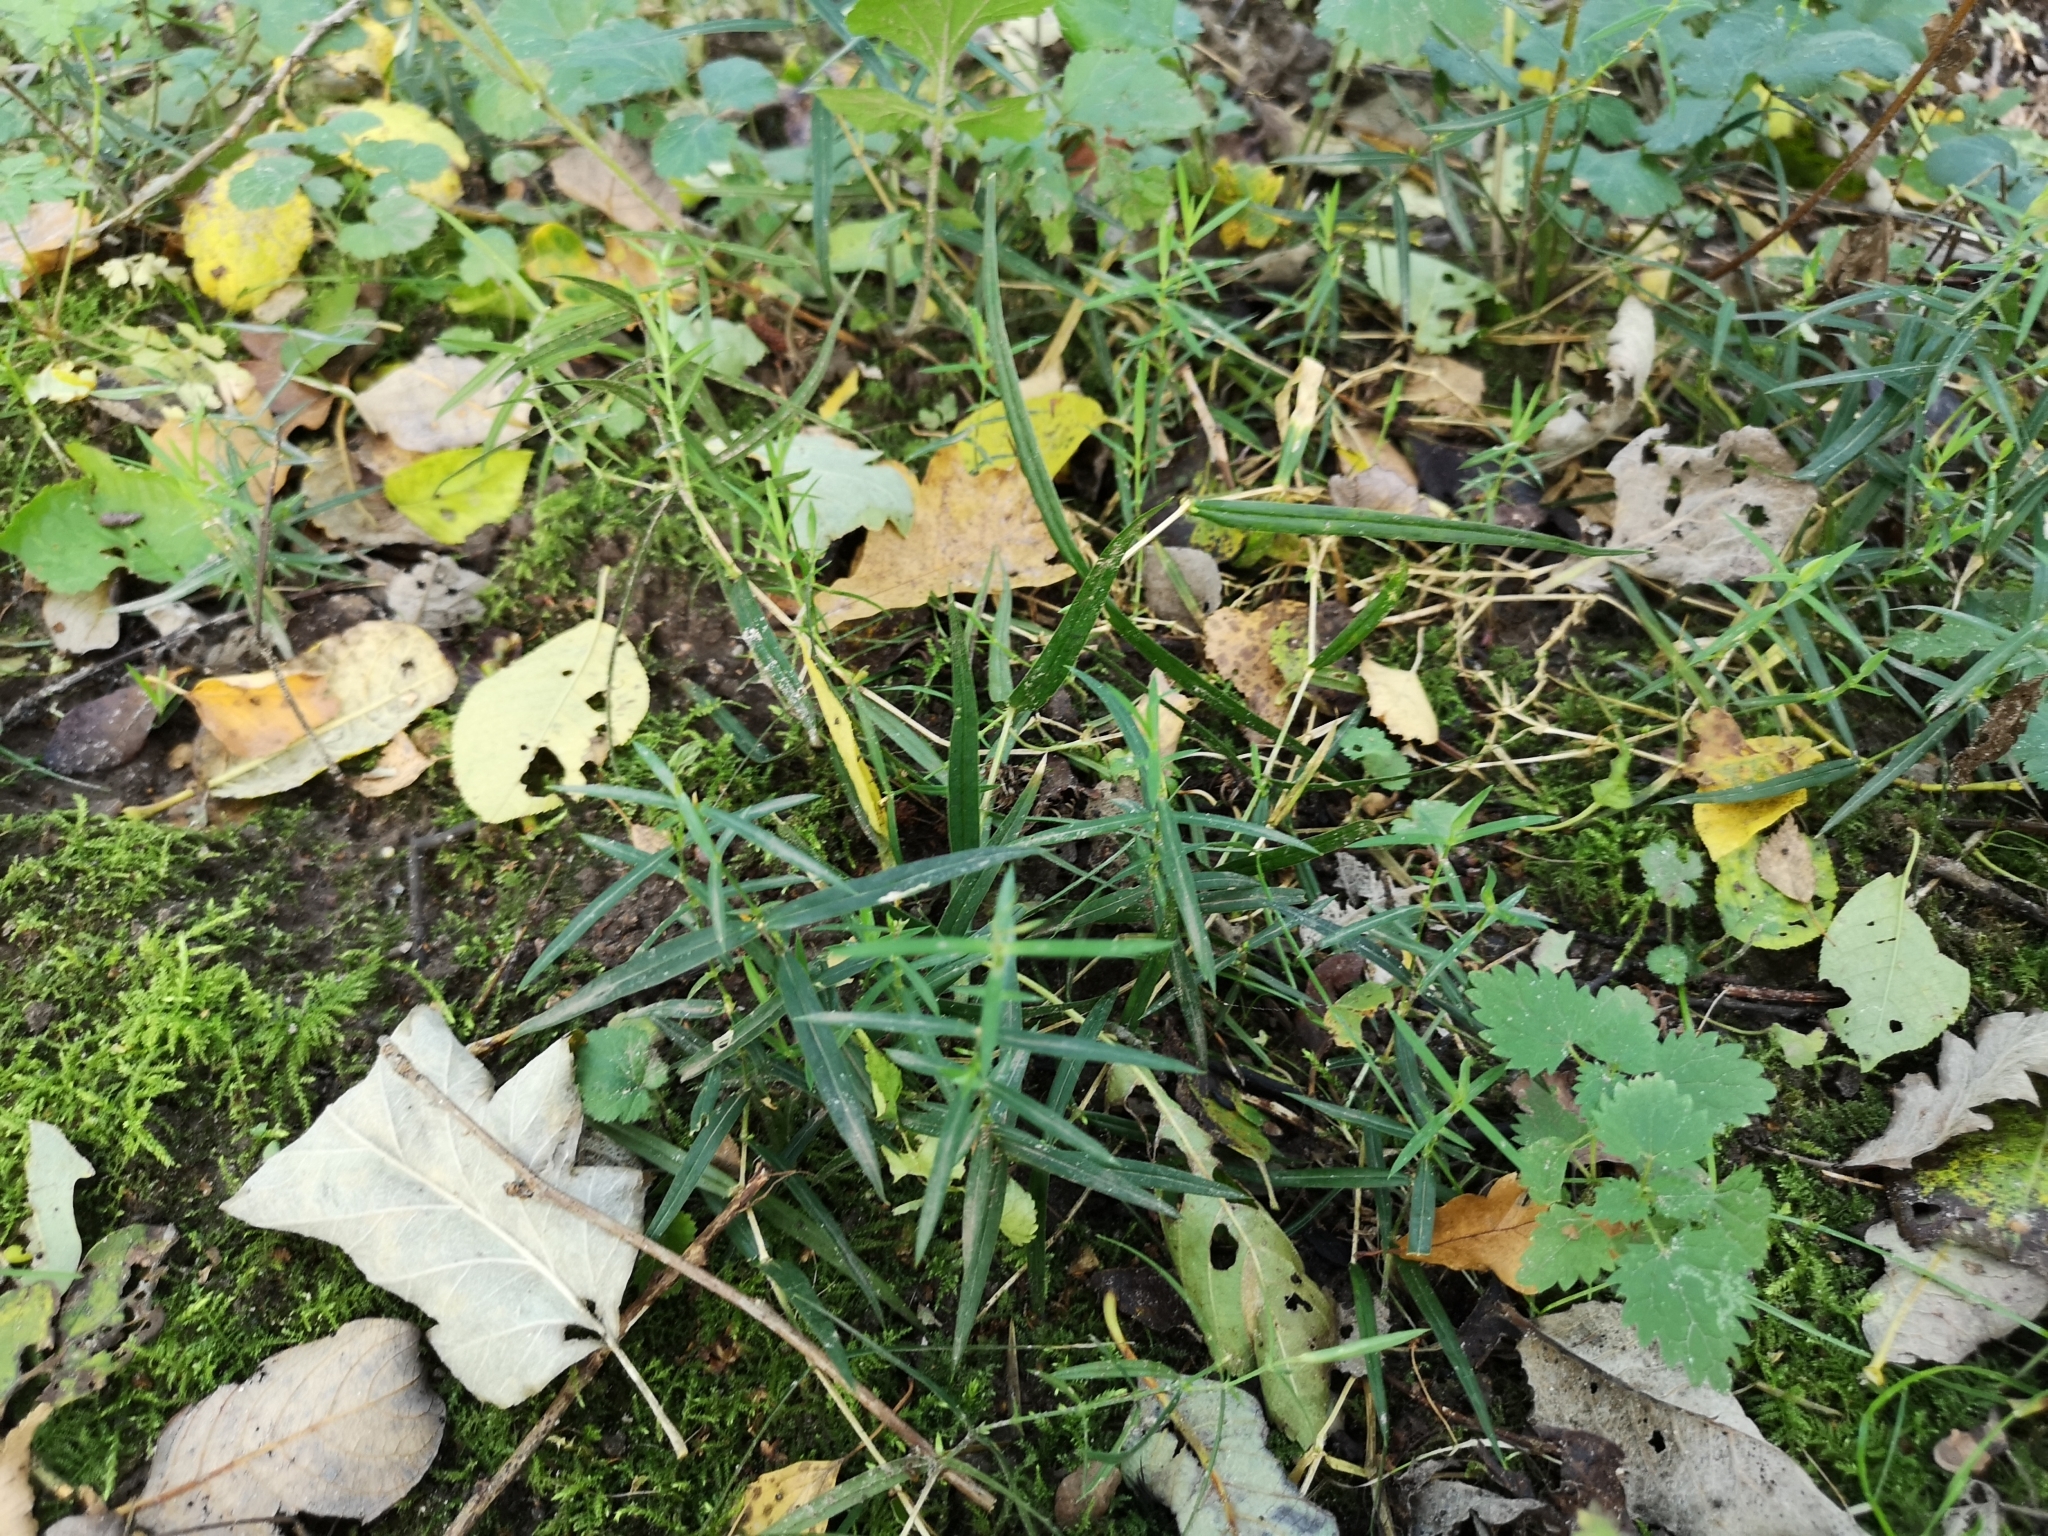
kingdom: Plantae
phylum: Tracheophyta
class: Magnoliopsida
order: Caryophyllales
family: Caryophyllaceae
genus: Rabelera
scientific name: Rabelera holostea
